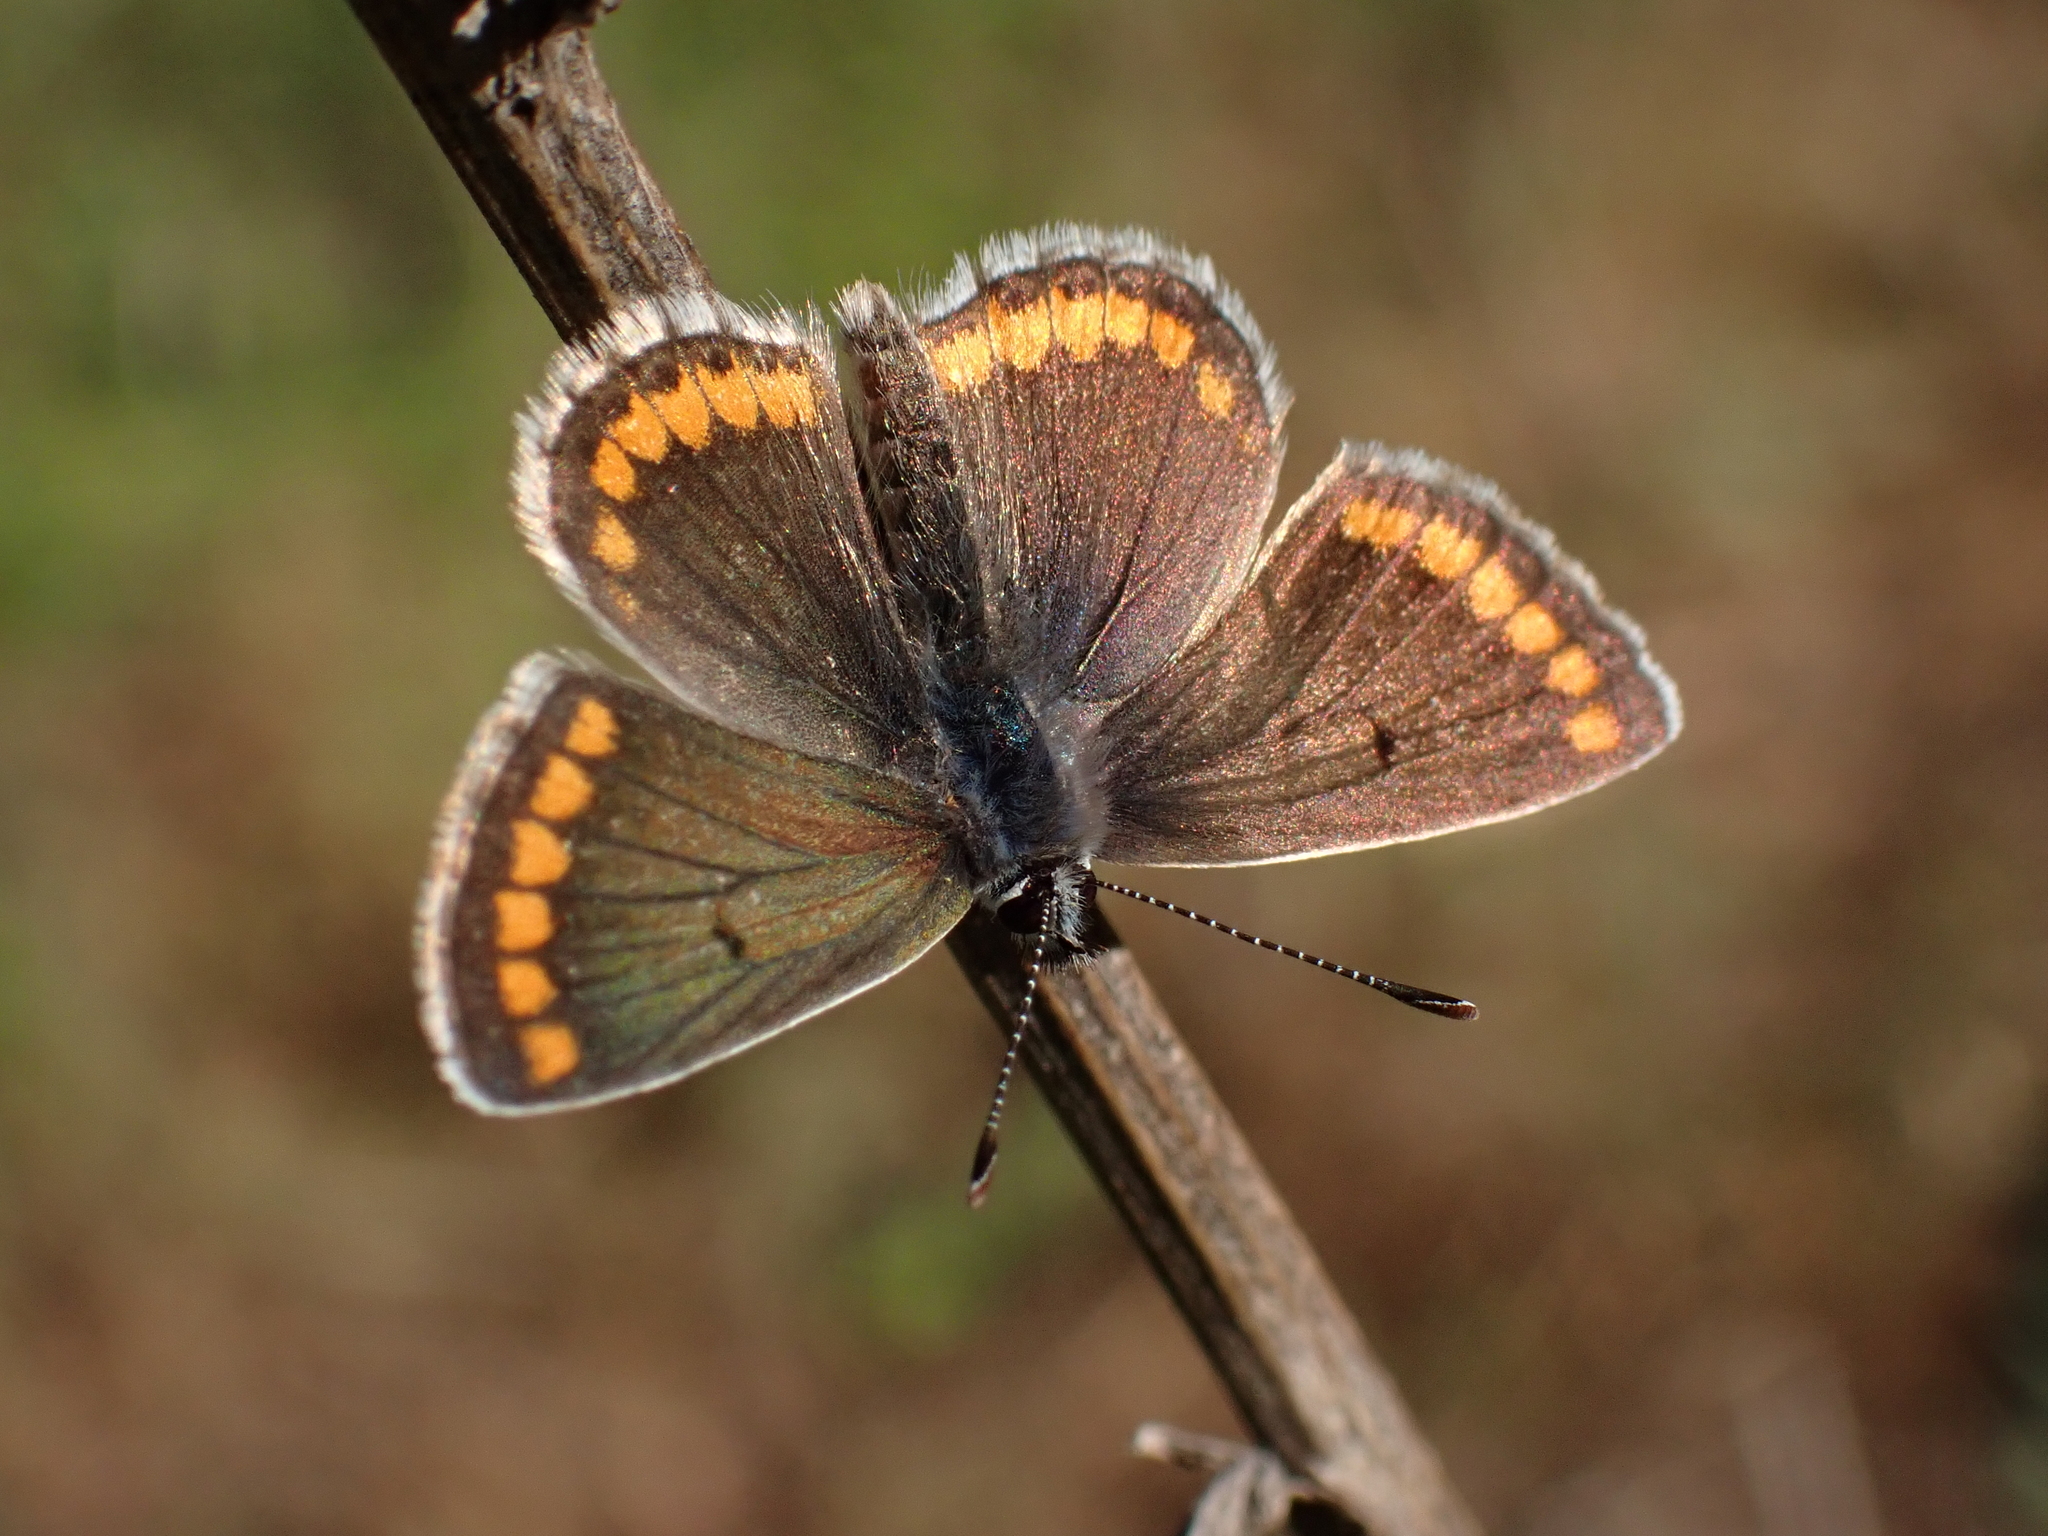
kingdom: Animalia
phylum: Arthropoda
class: Insecta
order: Lepidoptera
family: Lycaenidae
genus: Aricia
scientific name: Aricia agestis
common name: Brown argus
